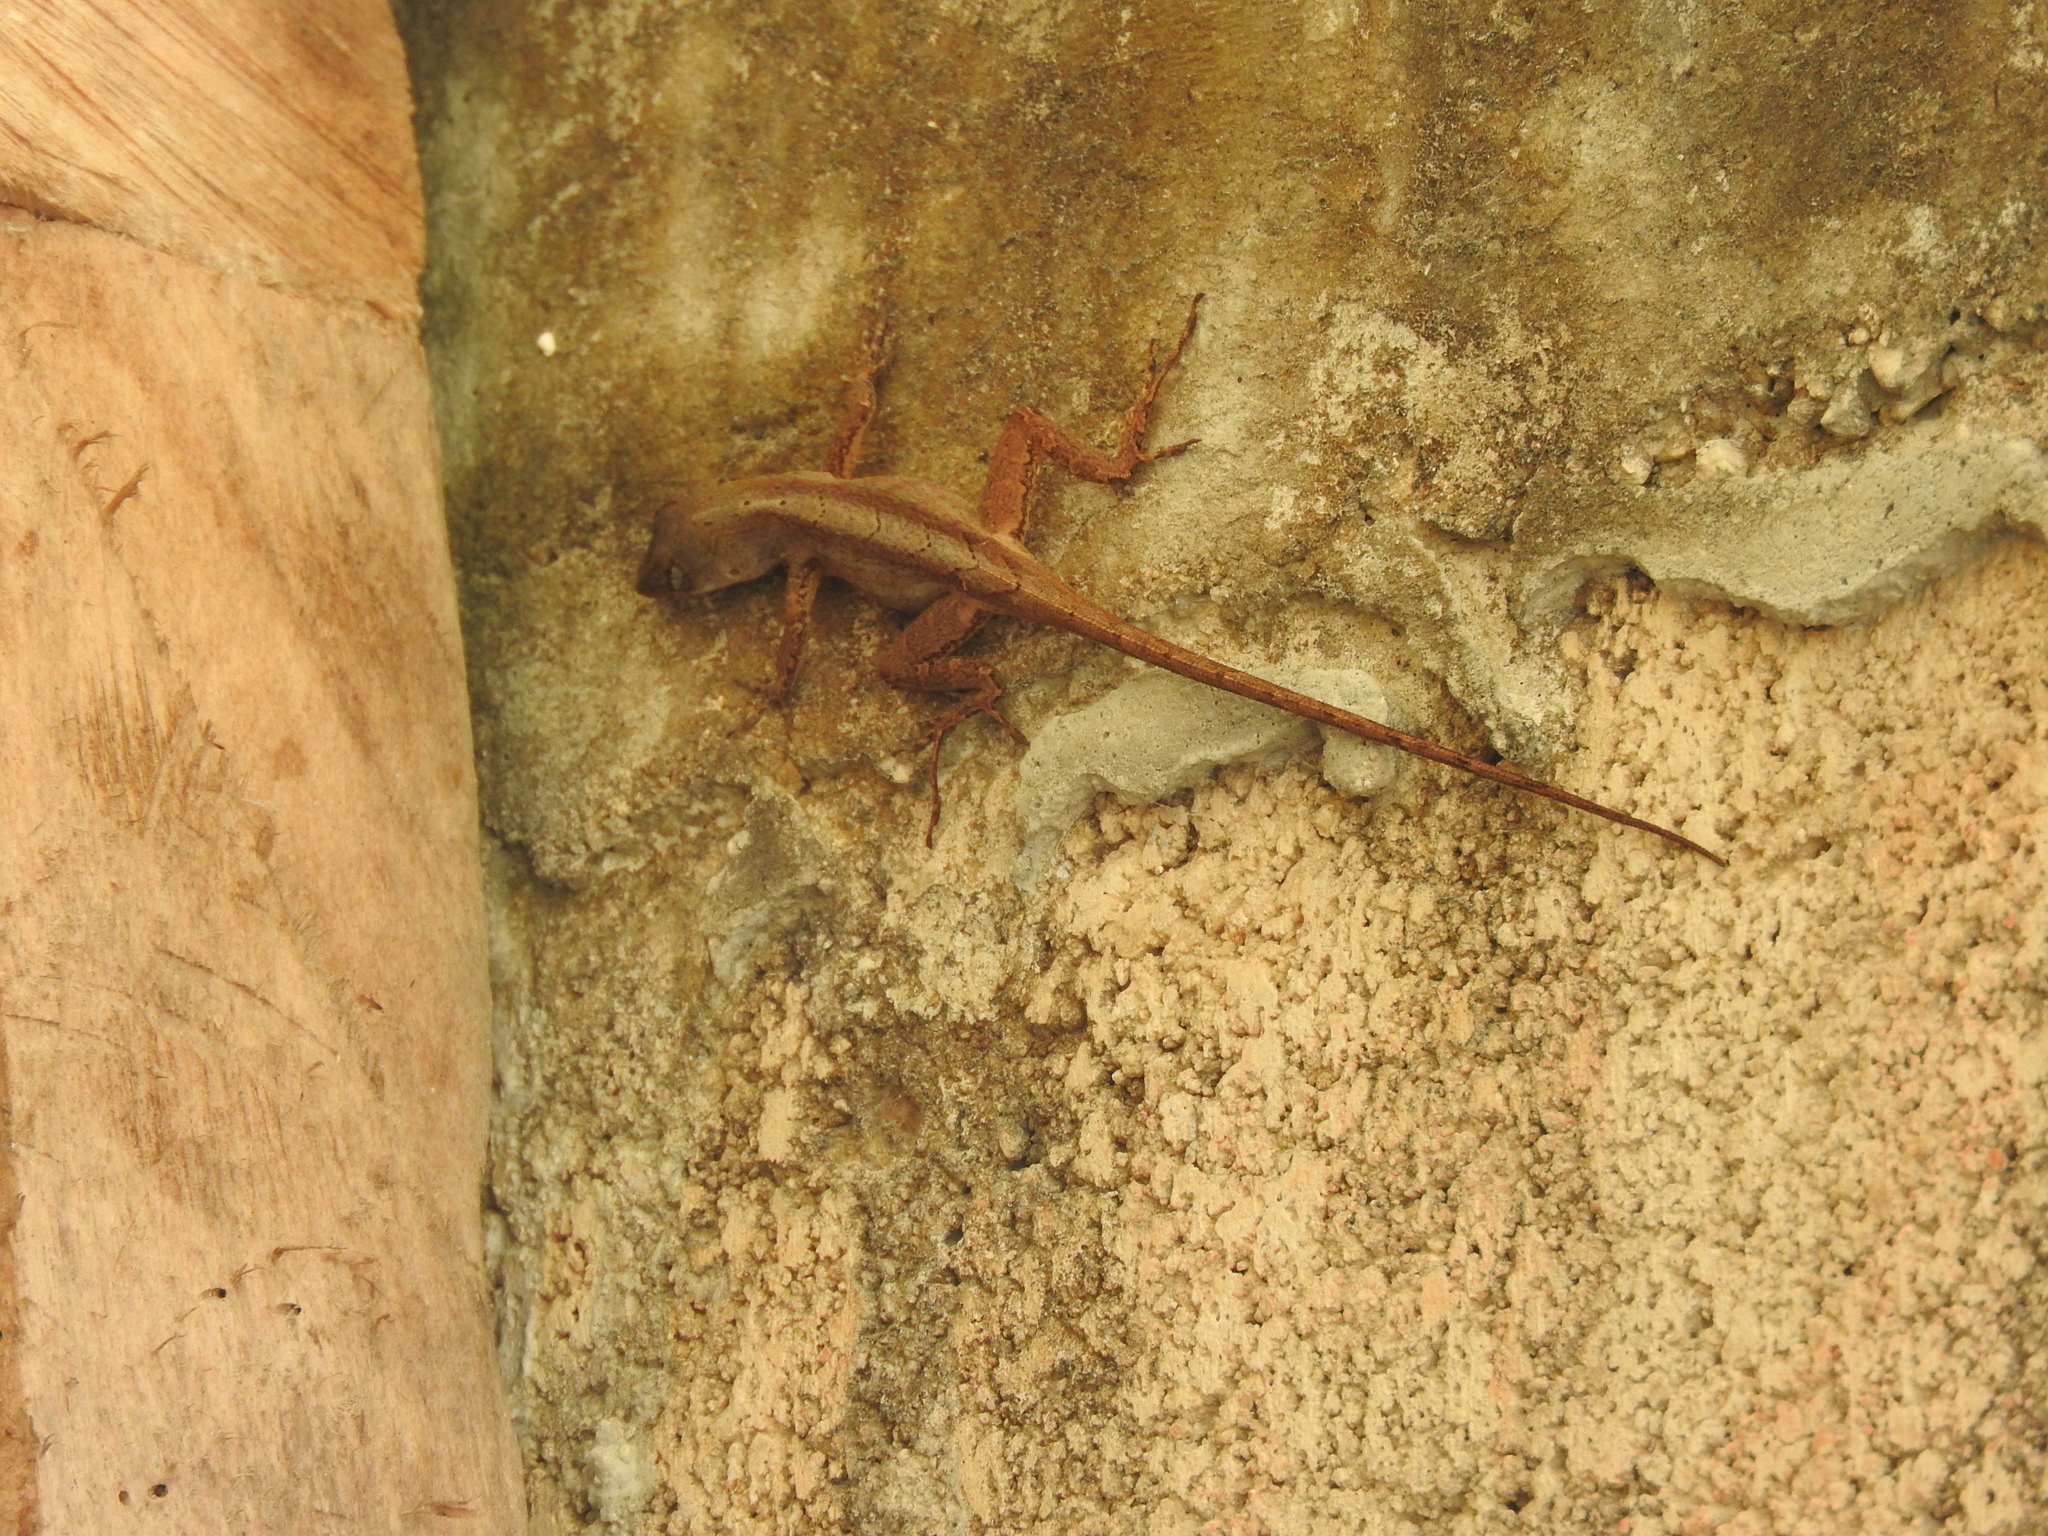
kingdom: Animalia
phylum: Chordata
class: Squamata
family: Dactyloidae
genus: Anolis
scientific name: Anolis sagrei
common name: Brown anole
